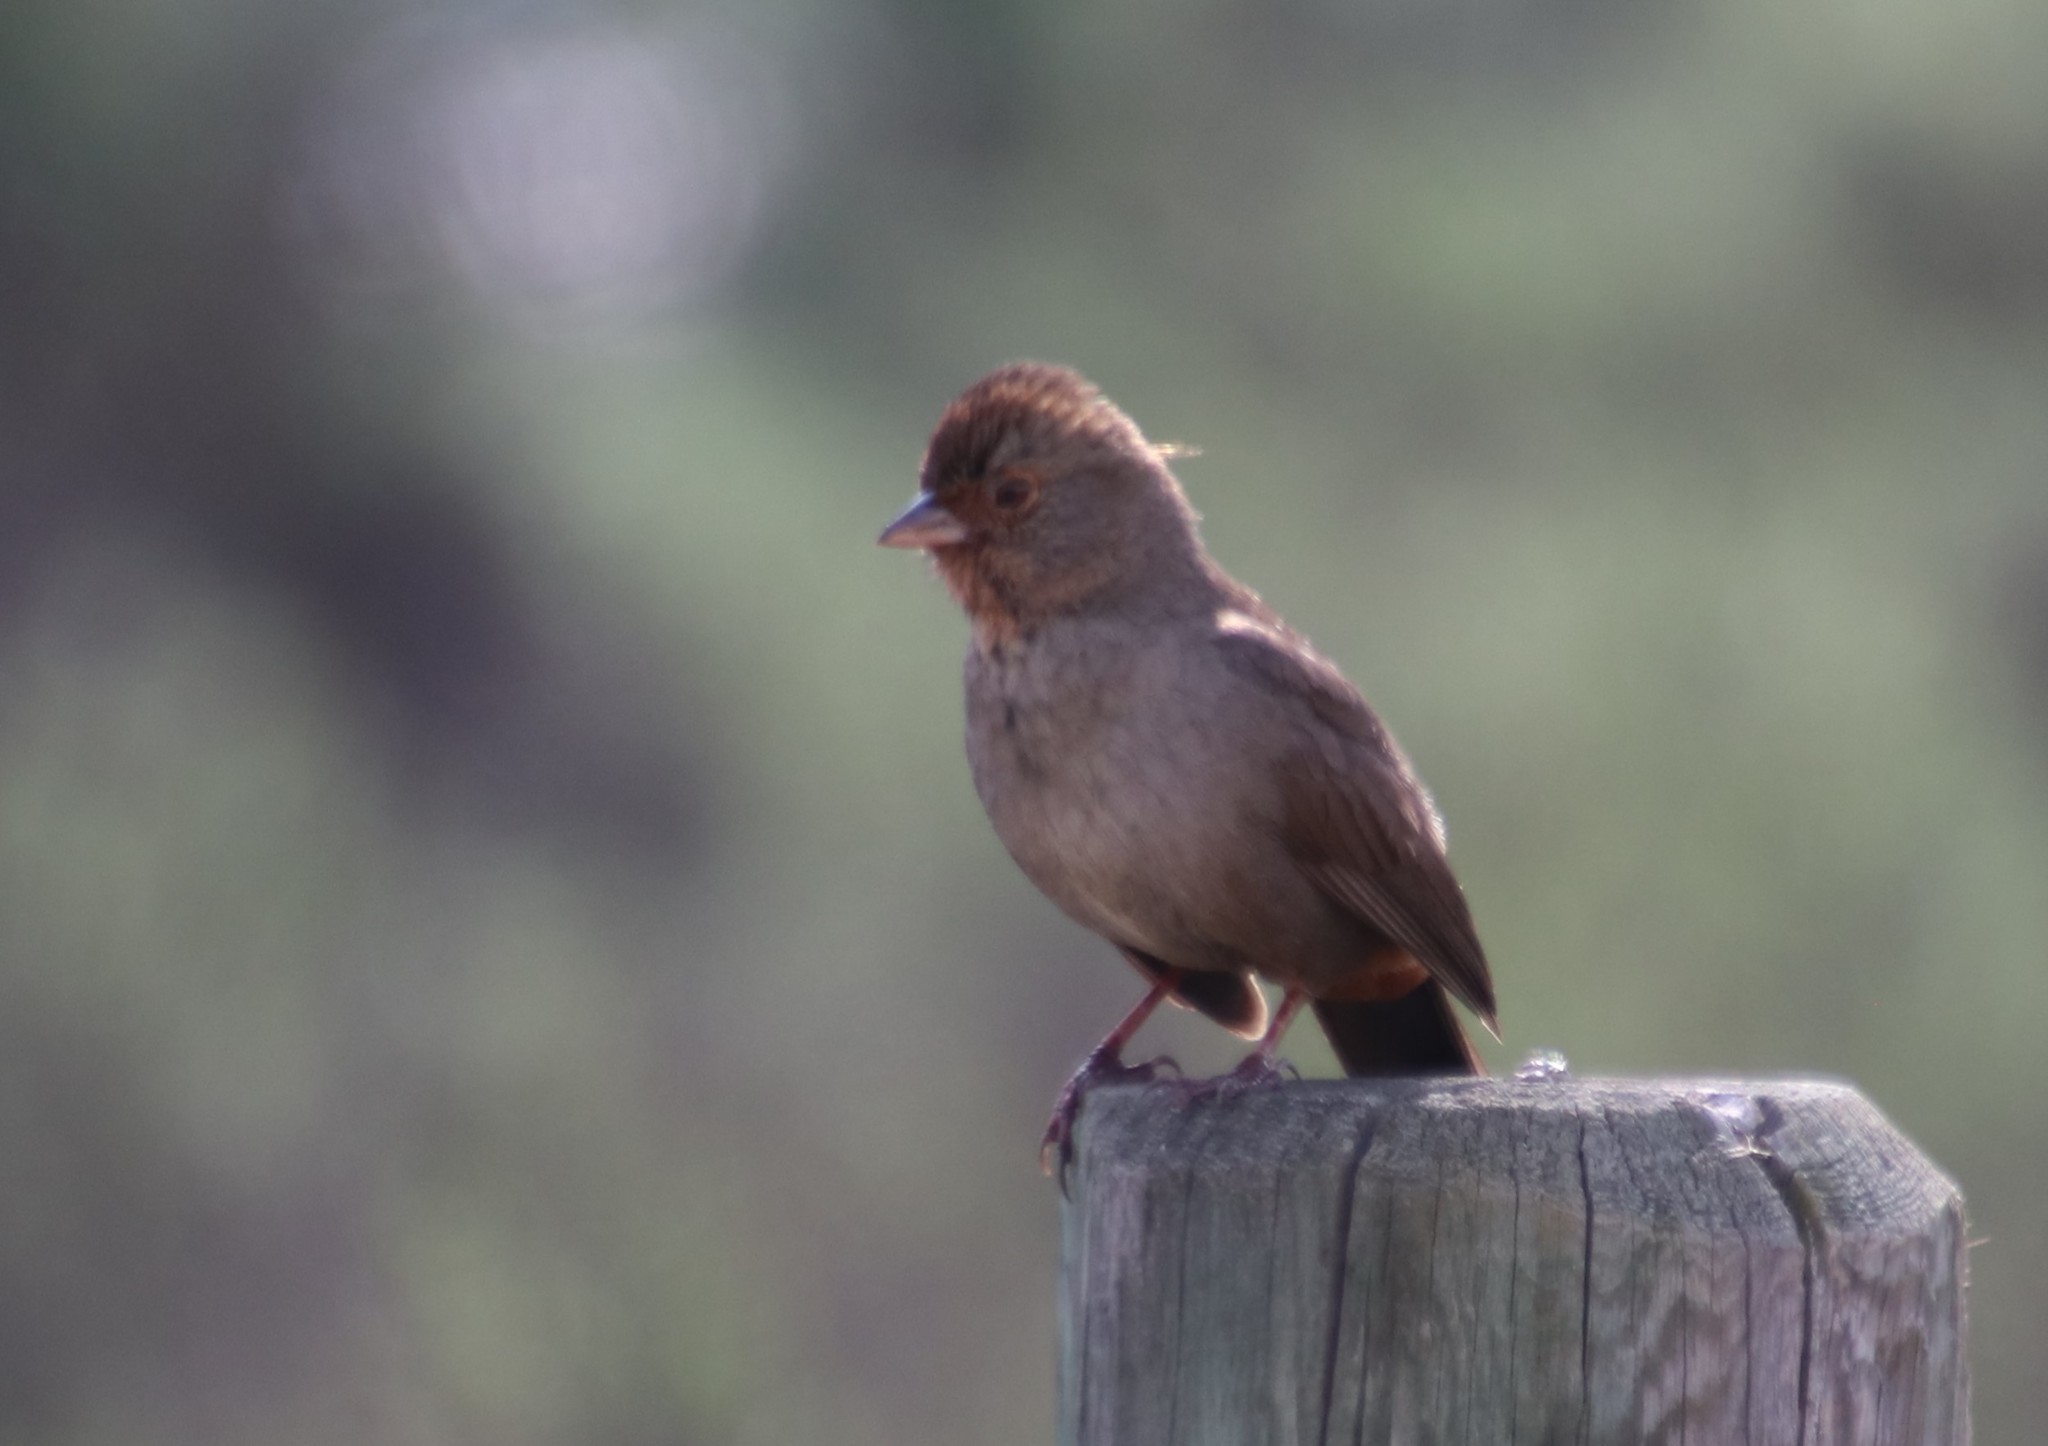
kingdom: Animalia
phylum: Chordata
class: Aves
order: Passeriformes
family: Passerellidae
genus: Melozone
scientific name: Melozone crissalis
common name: California towhee
